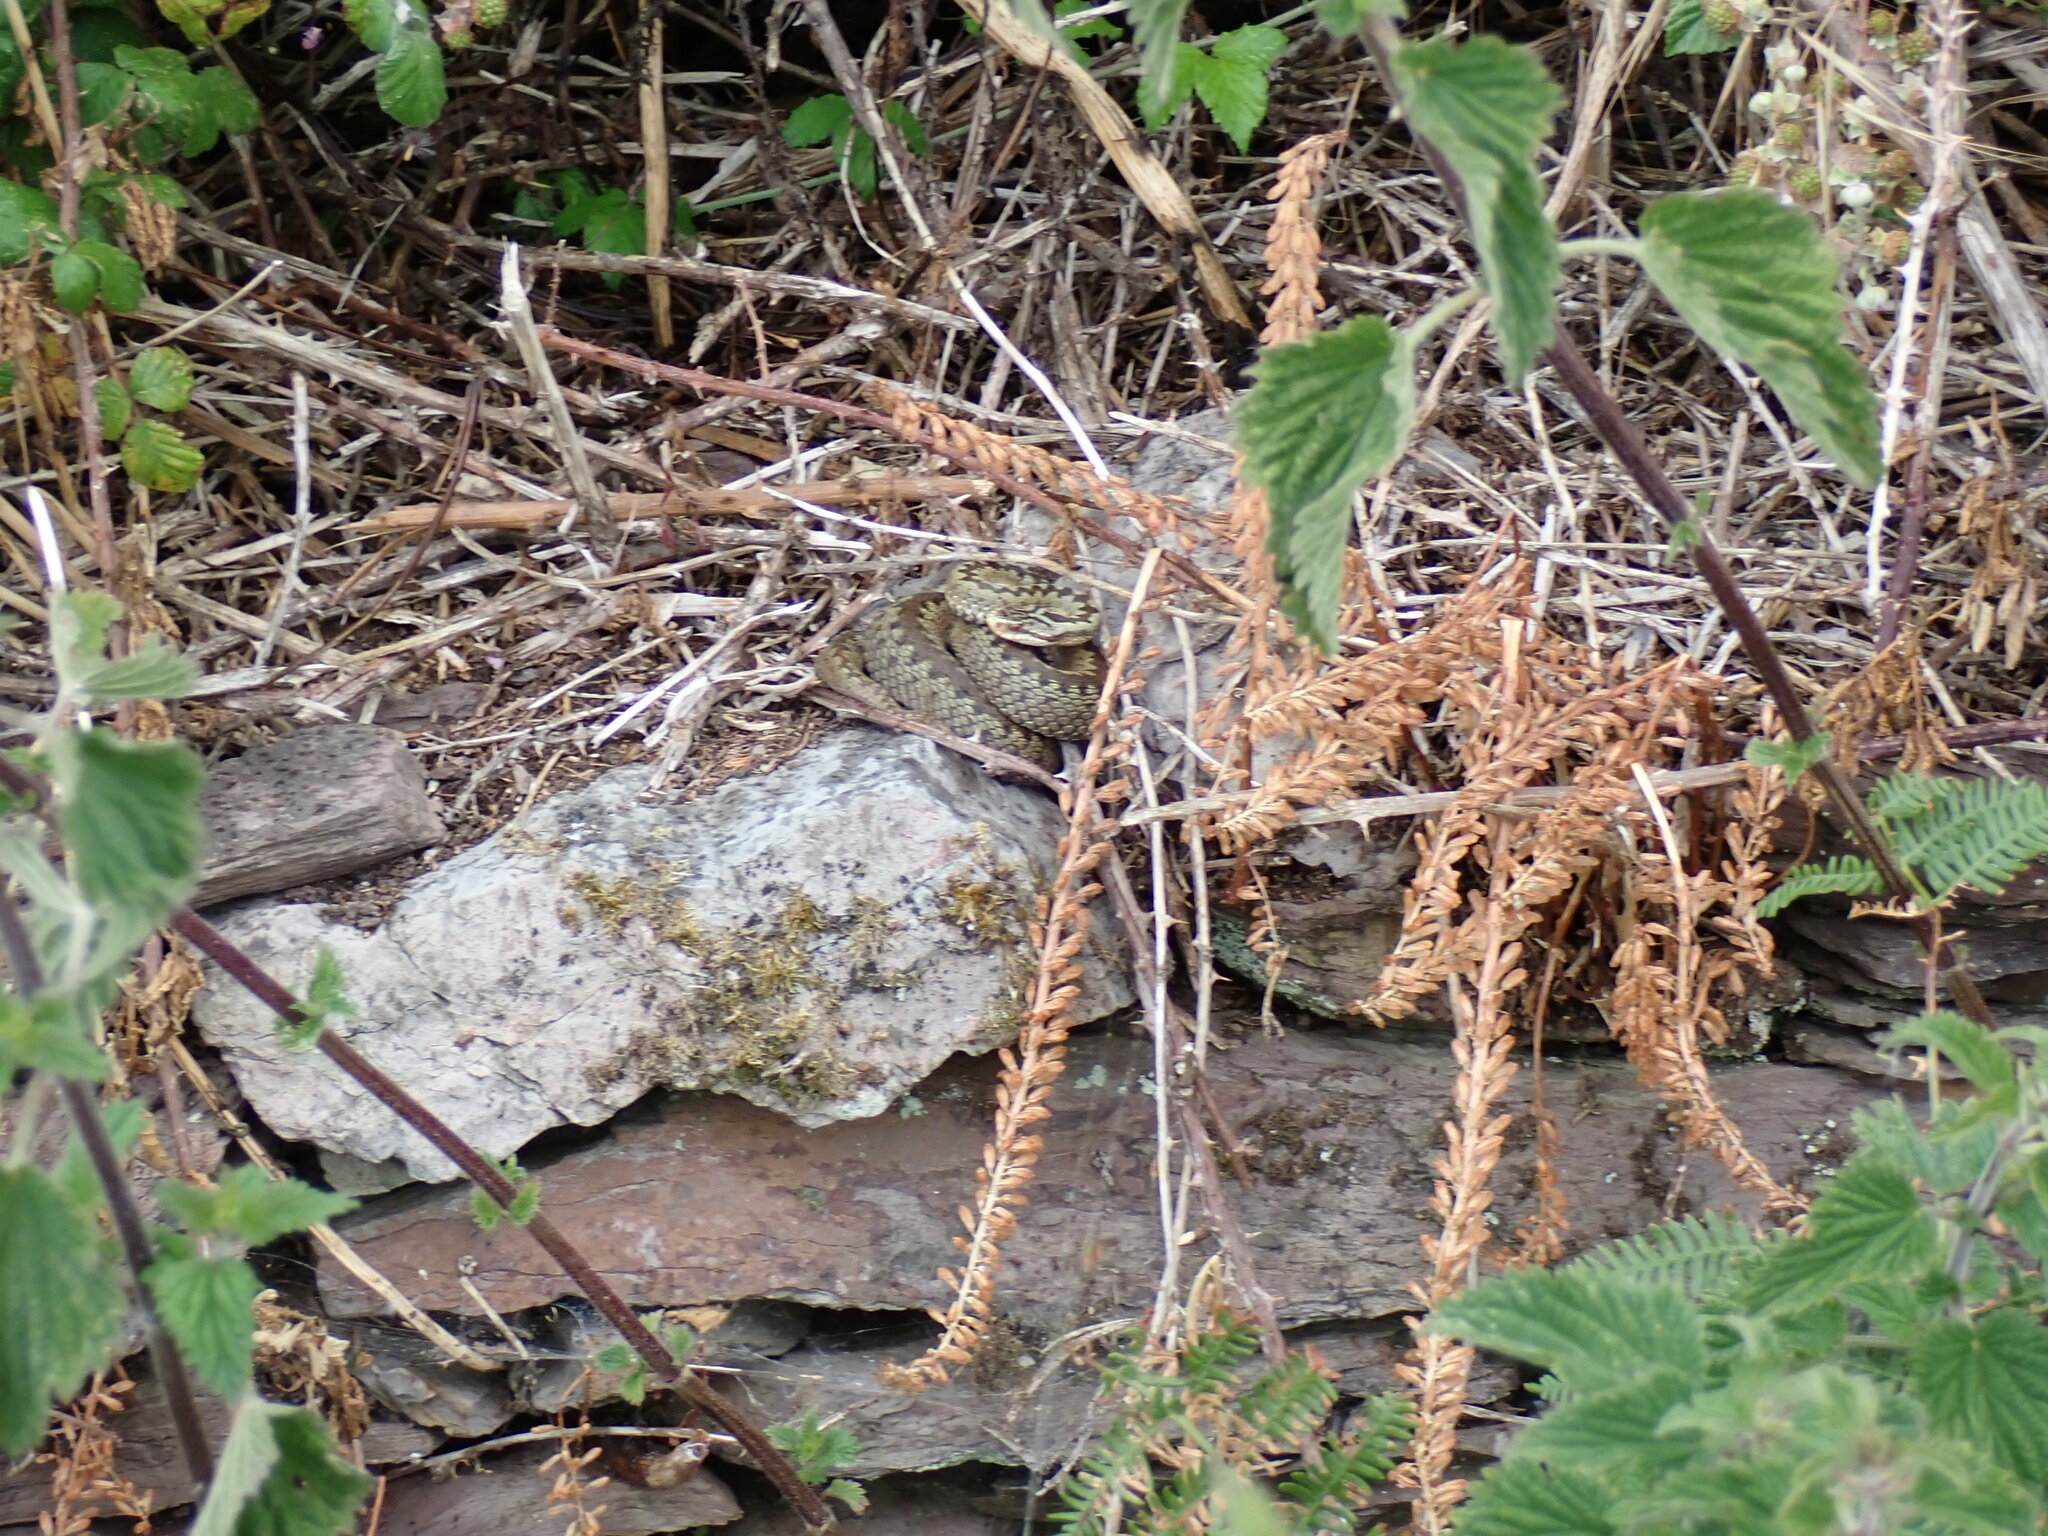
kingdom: Animalia
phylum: Chordata
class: Squamata
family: Viperidae
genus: Vipera
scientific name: Vipera berus
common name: Adder
